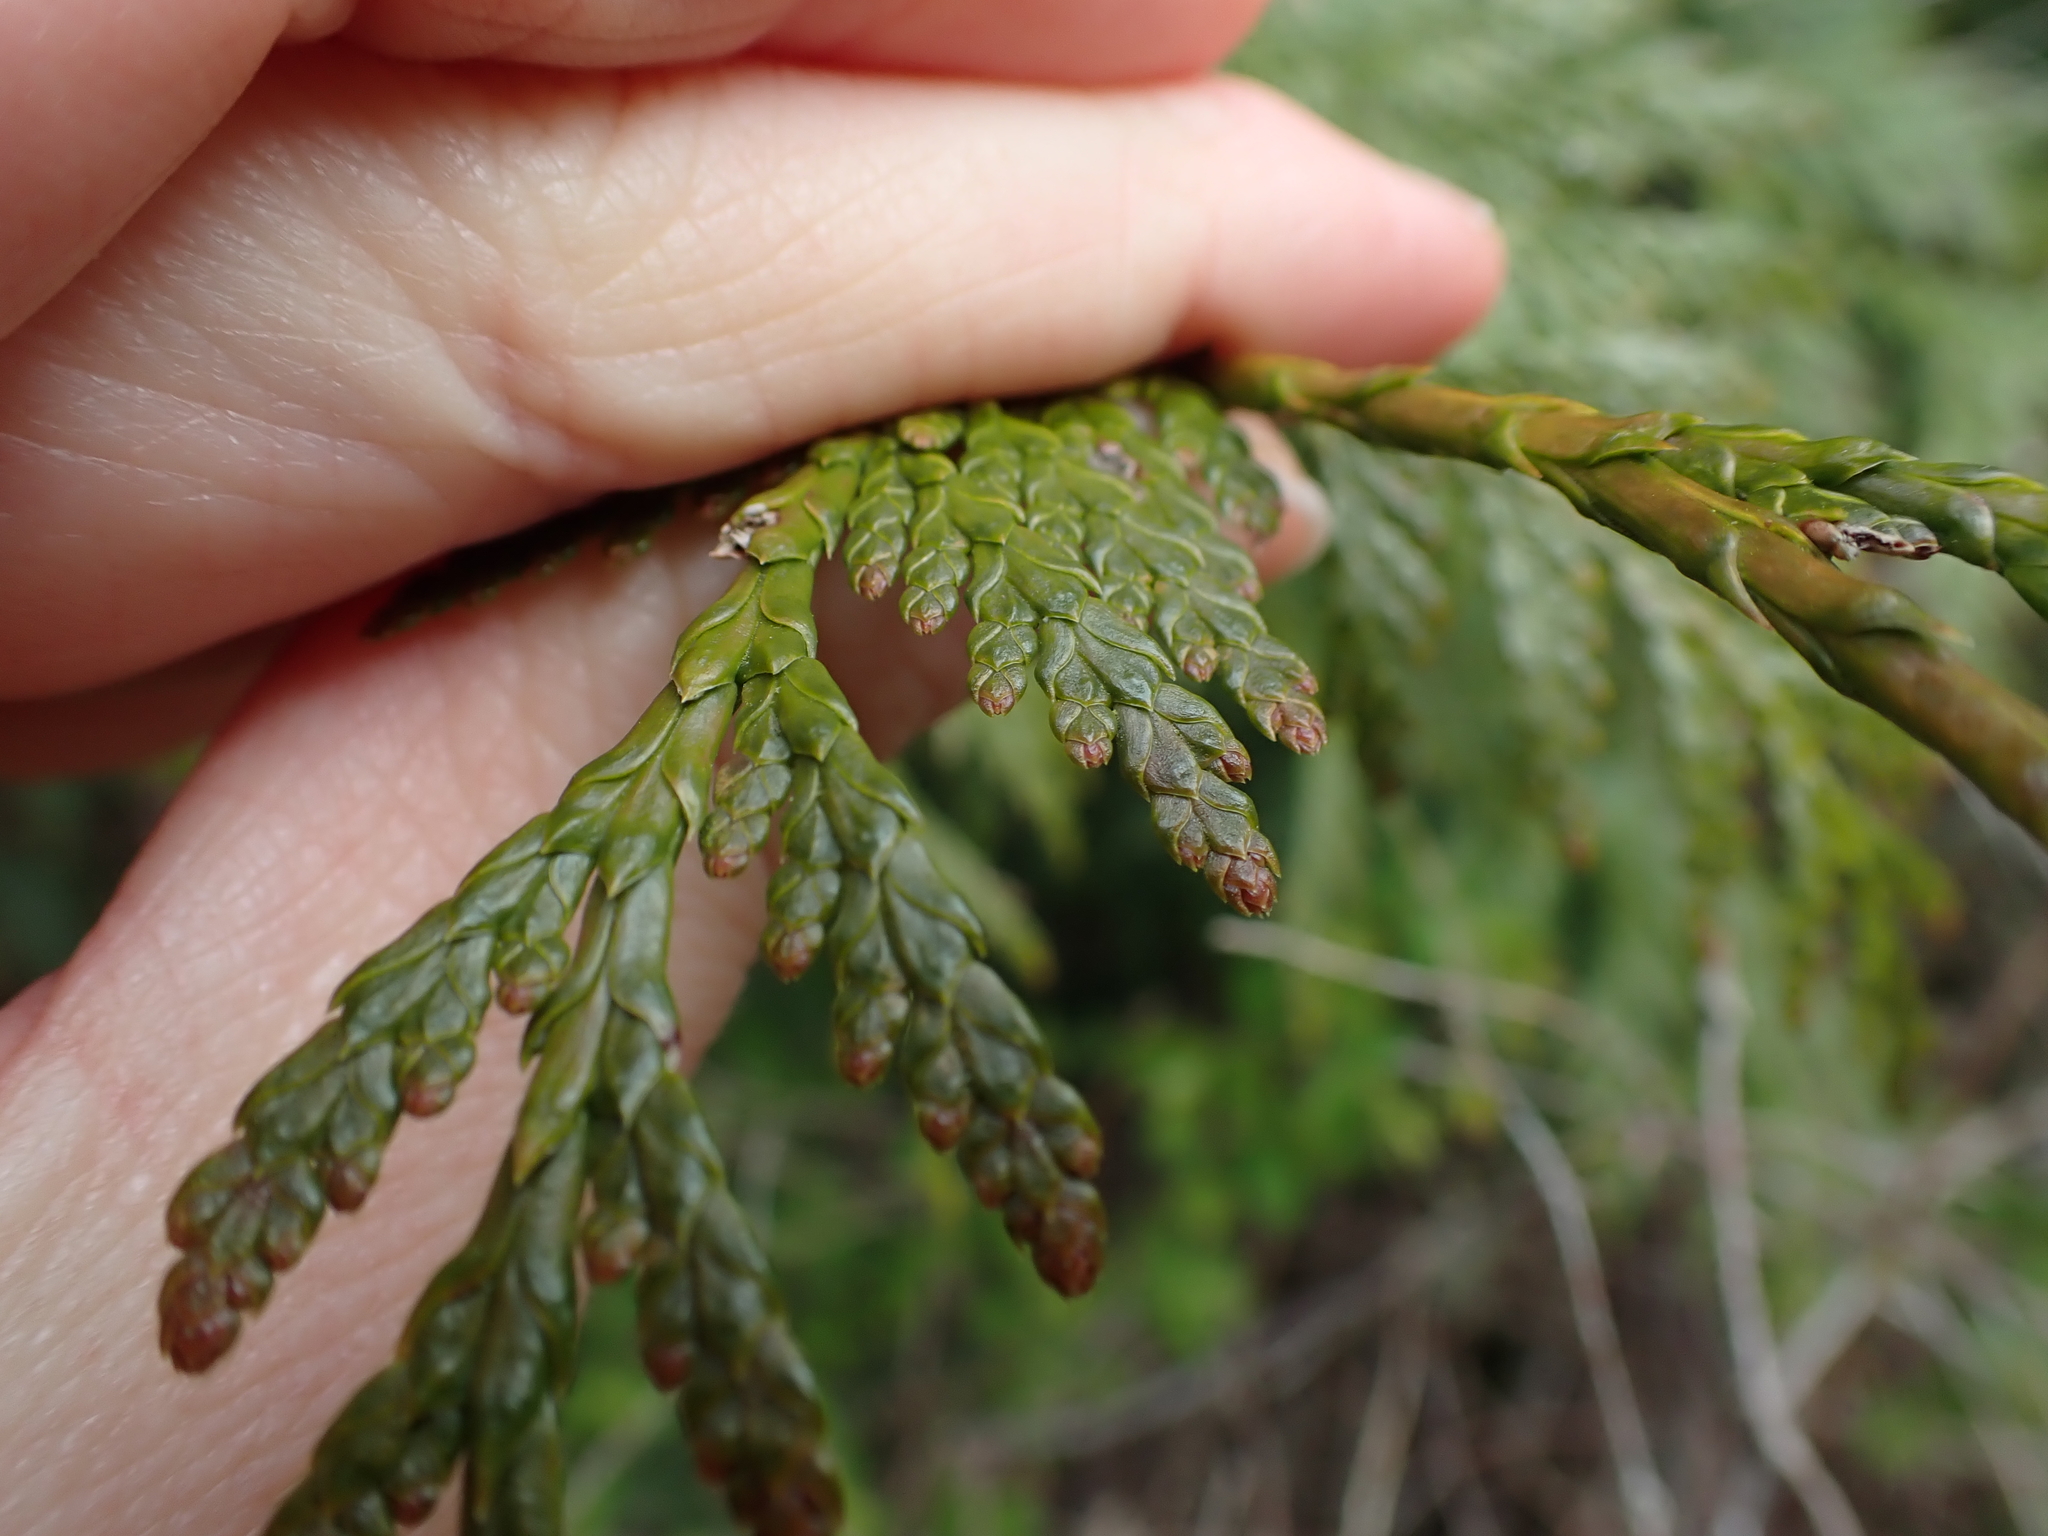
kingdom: Plantae
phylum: Tracheophyta
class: Pinopsida
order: Pinales
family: Cupressaceae
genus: Thuja
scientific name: Thuja plicata
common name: Western red-cedar
